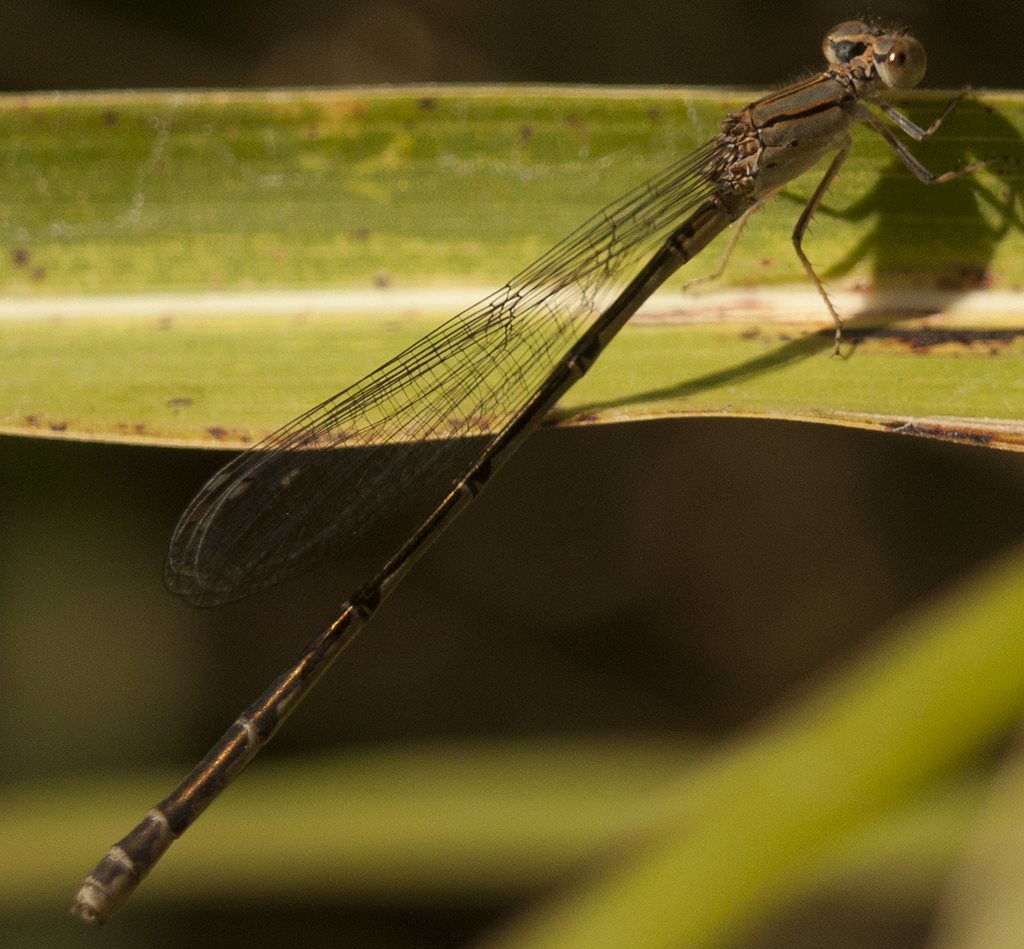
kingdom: Animalia
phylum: Arthropoda
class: Insecta
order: Odonata
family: Coenagrionidae
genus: Pseudagrion
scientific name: Pseudagrion microcephalum
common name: Blue riverdamsel
